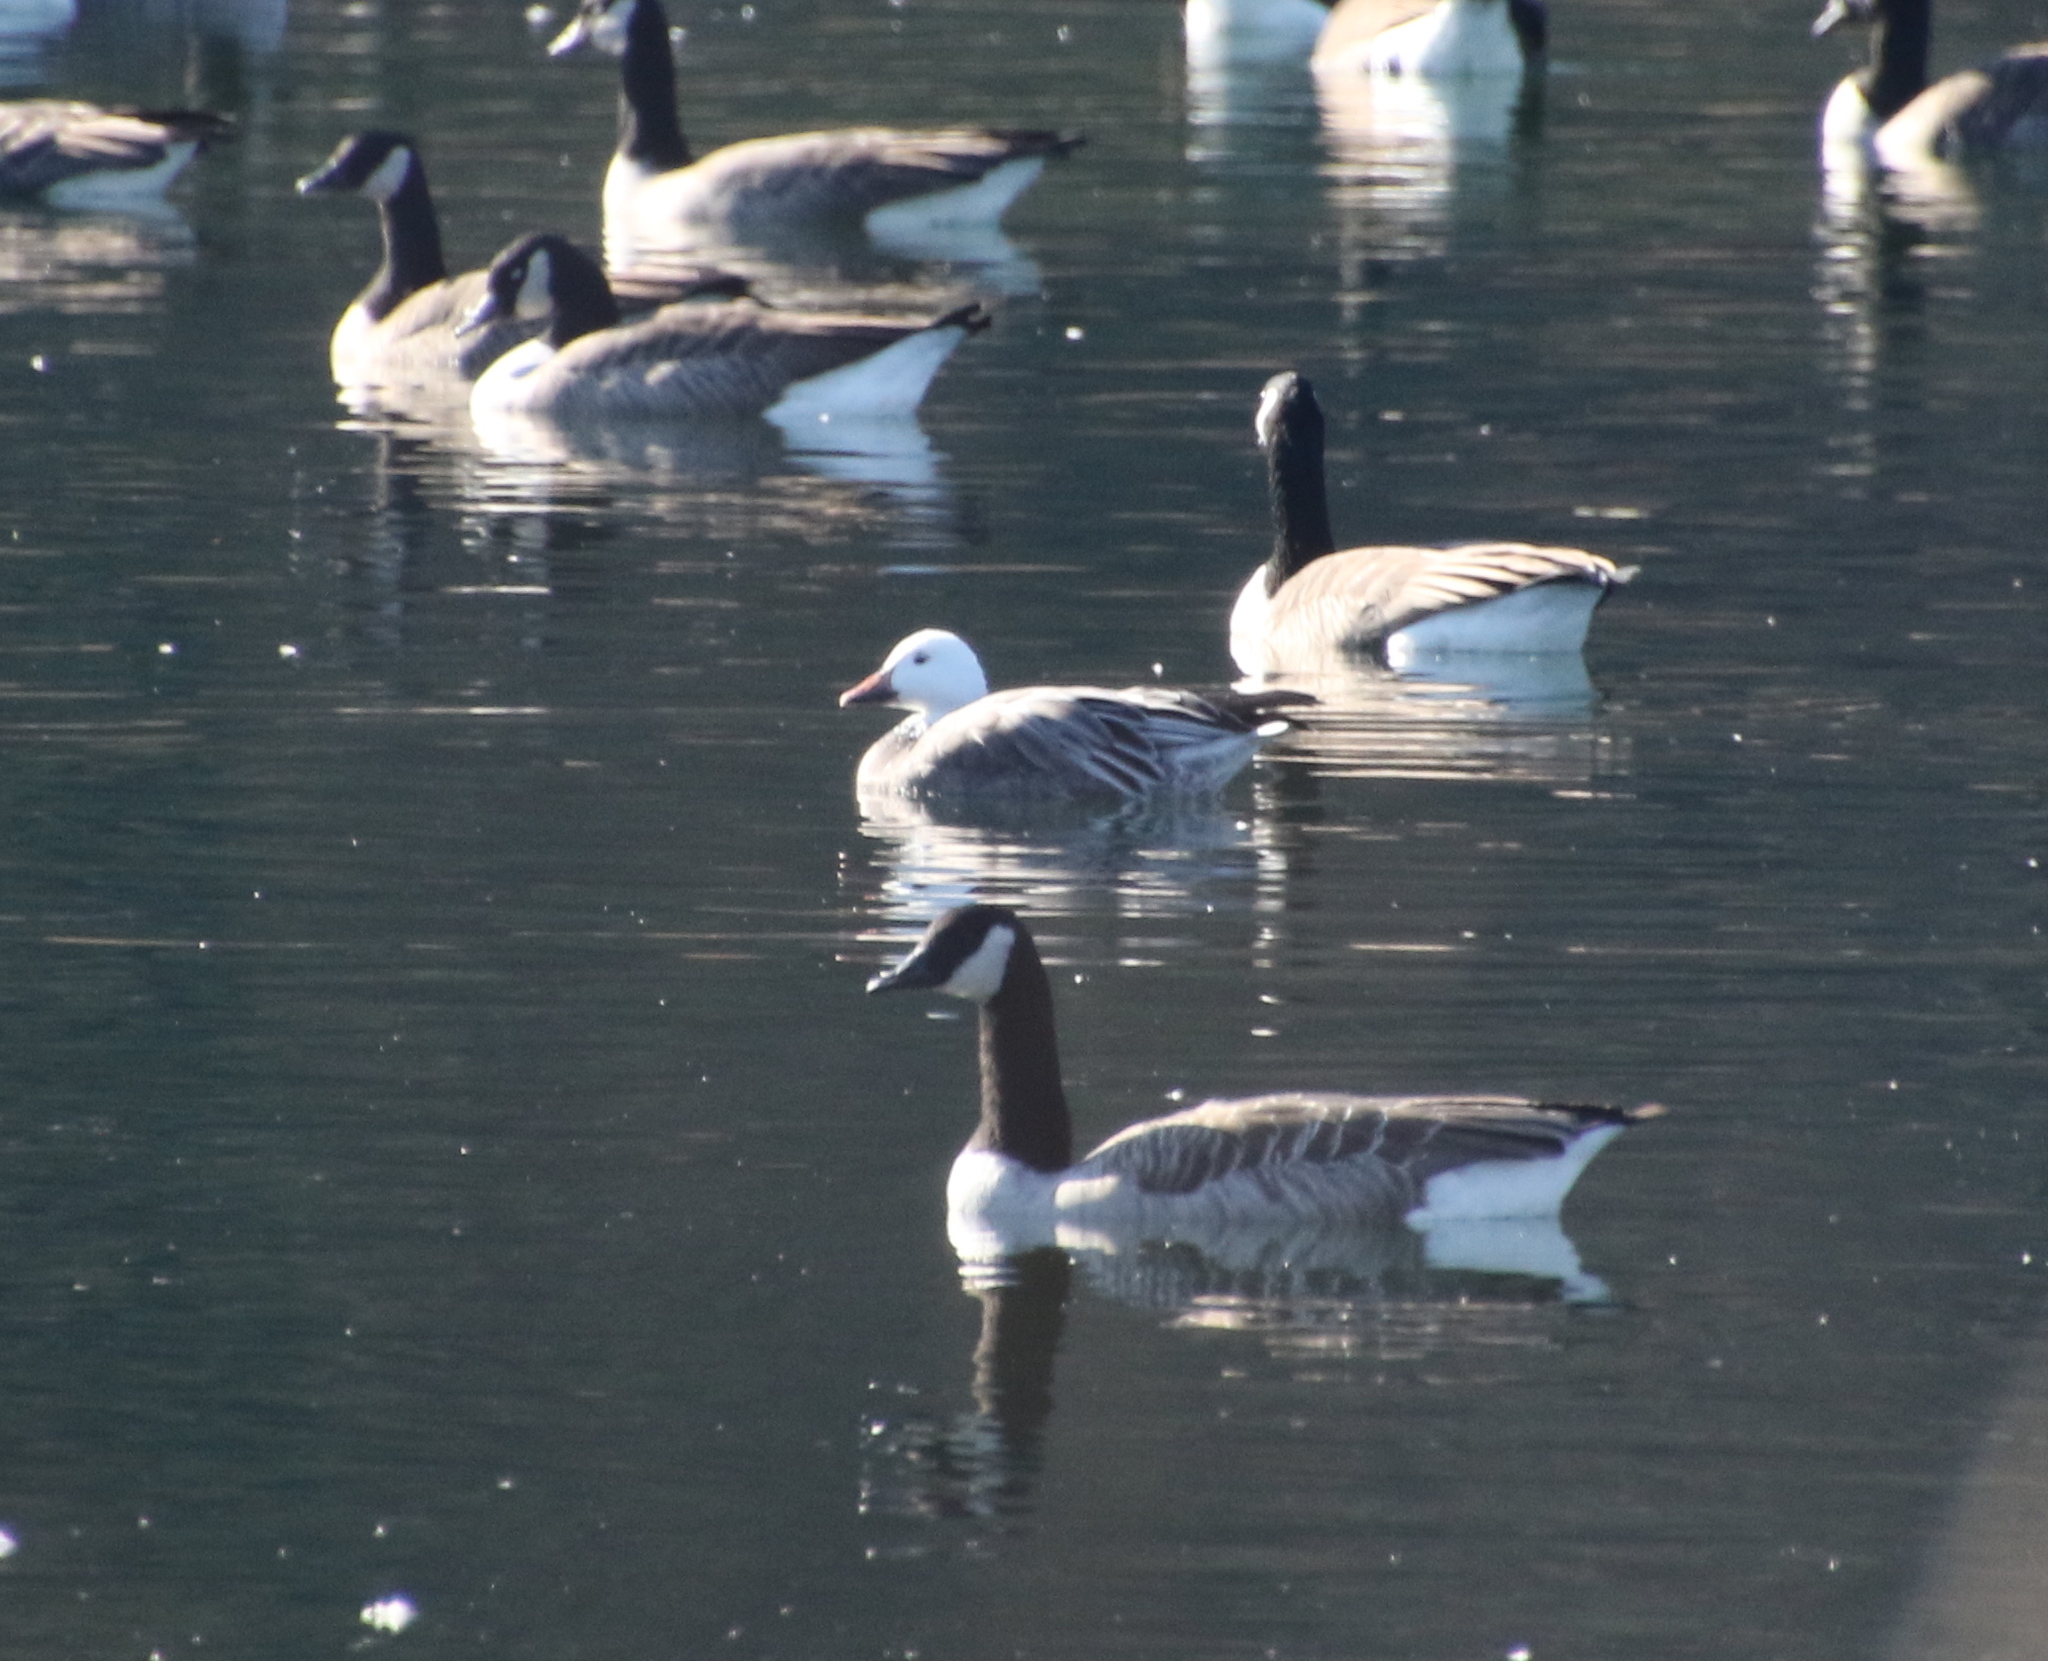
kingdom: Animalia
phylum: Chordata
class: Aves
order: Anseriformes
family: Anatidae
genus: Anser
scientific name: Anser caerulescens
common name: Snow goose
